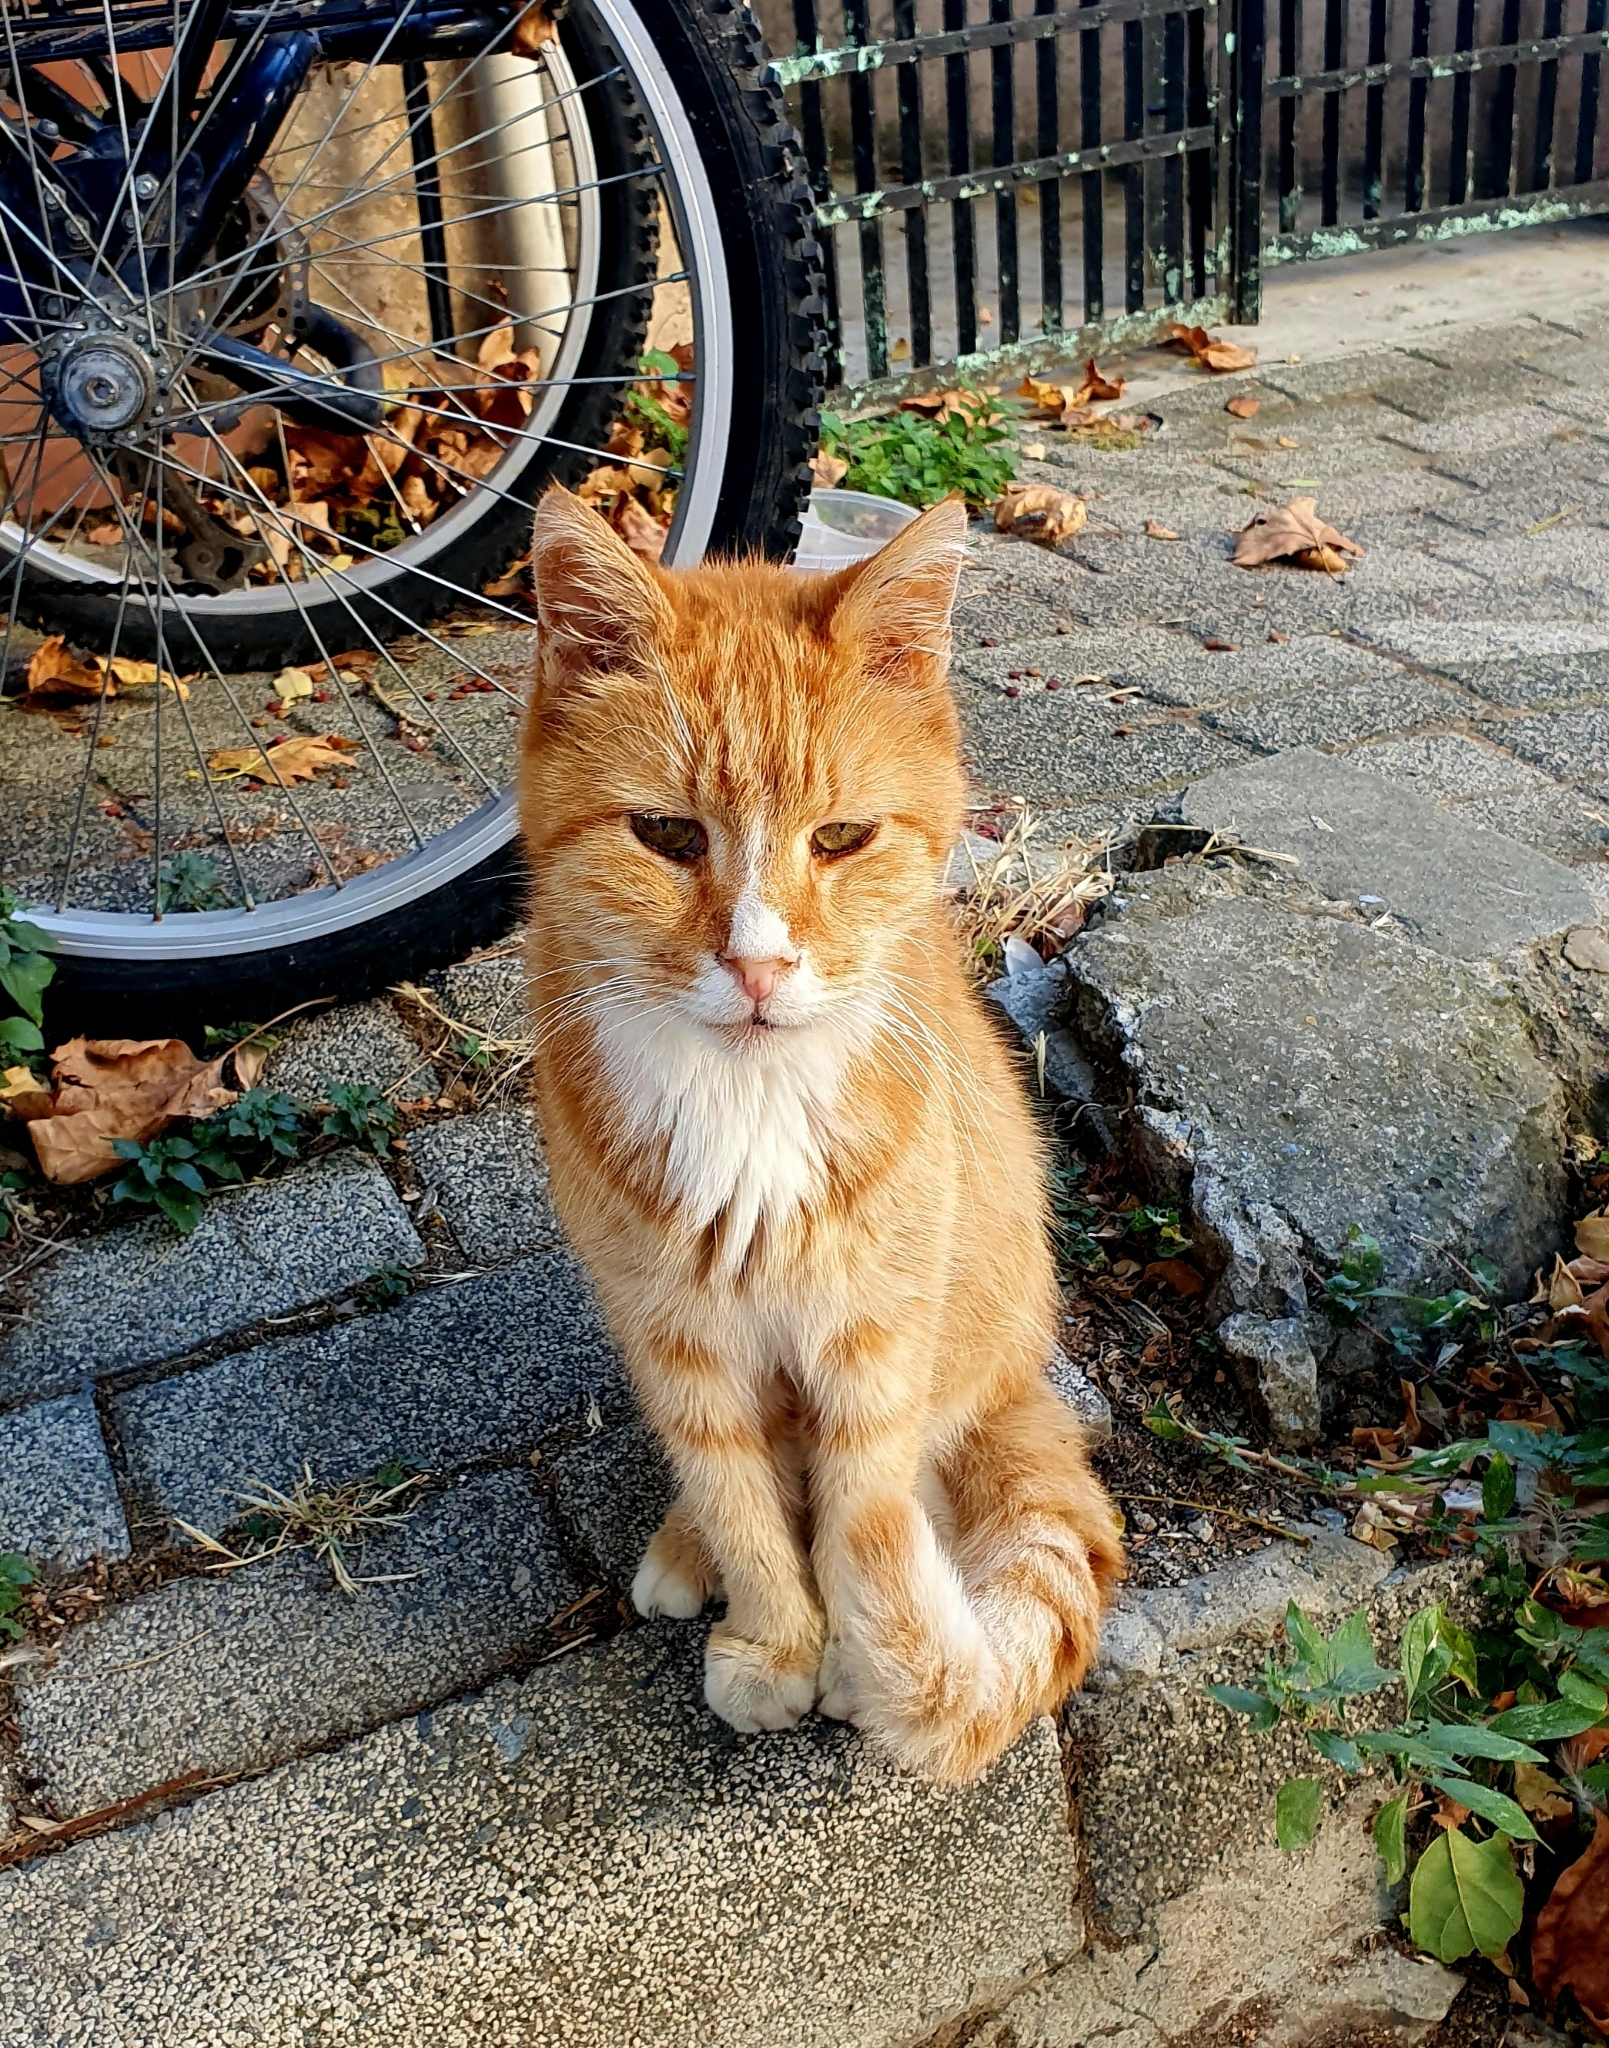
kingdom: Animalia
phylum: Chordata
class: Mammalia
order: Carnivora
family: Felidae
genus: Felis
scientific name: Felis catus
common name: Domestic cat
